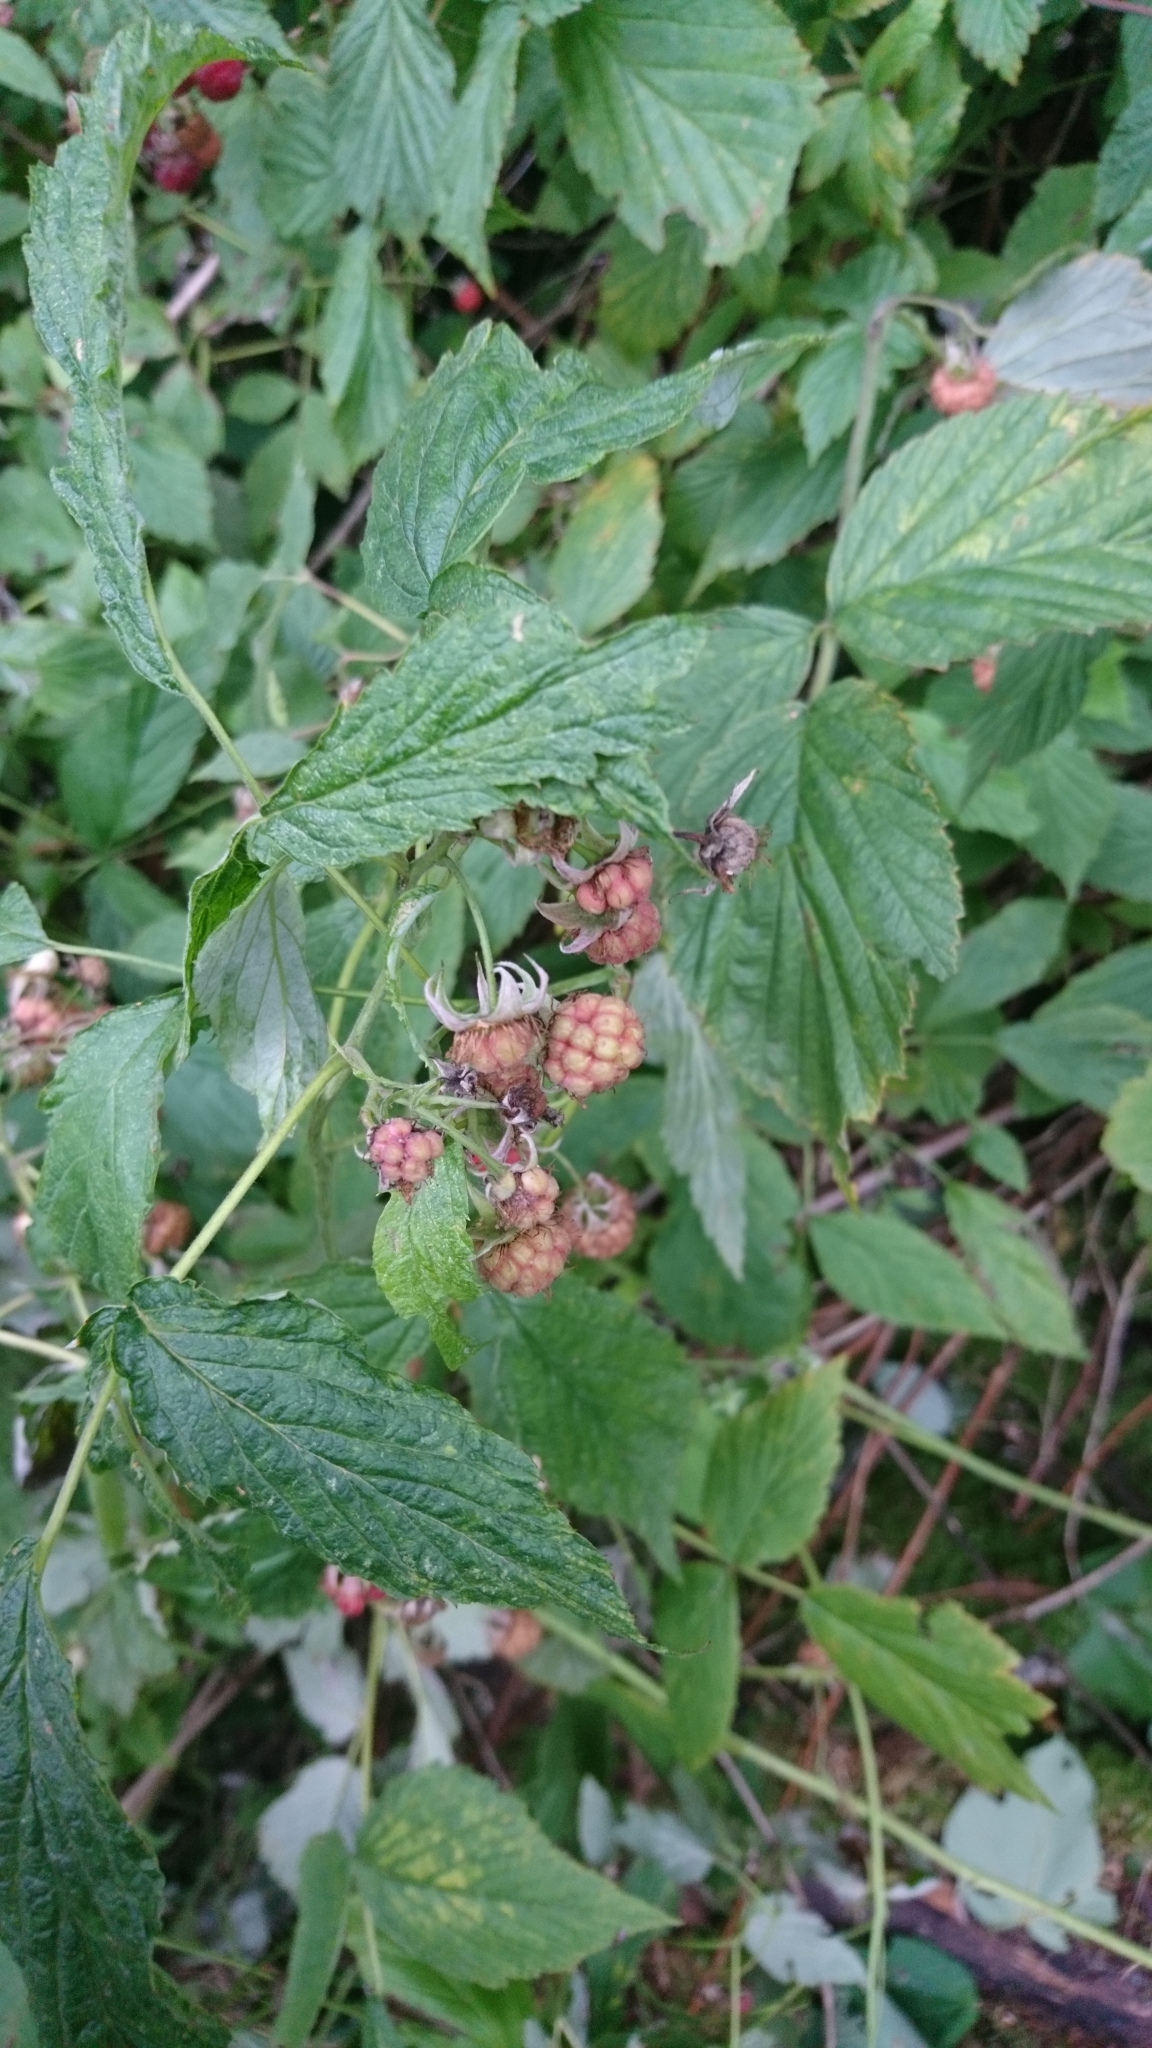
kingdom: Plantae
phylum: Tracheophyta
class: Magnoliopsida
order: Rosales
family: Rosaceae
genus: Rubus
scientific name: Rubus idaeus
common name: Raspberry
